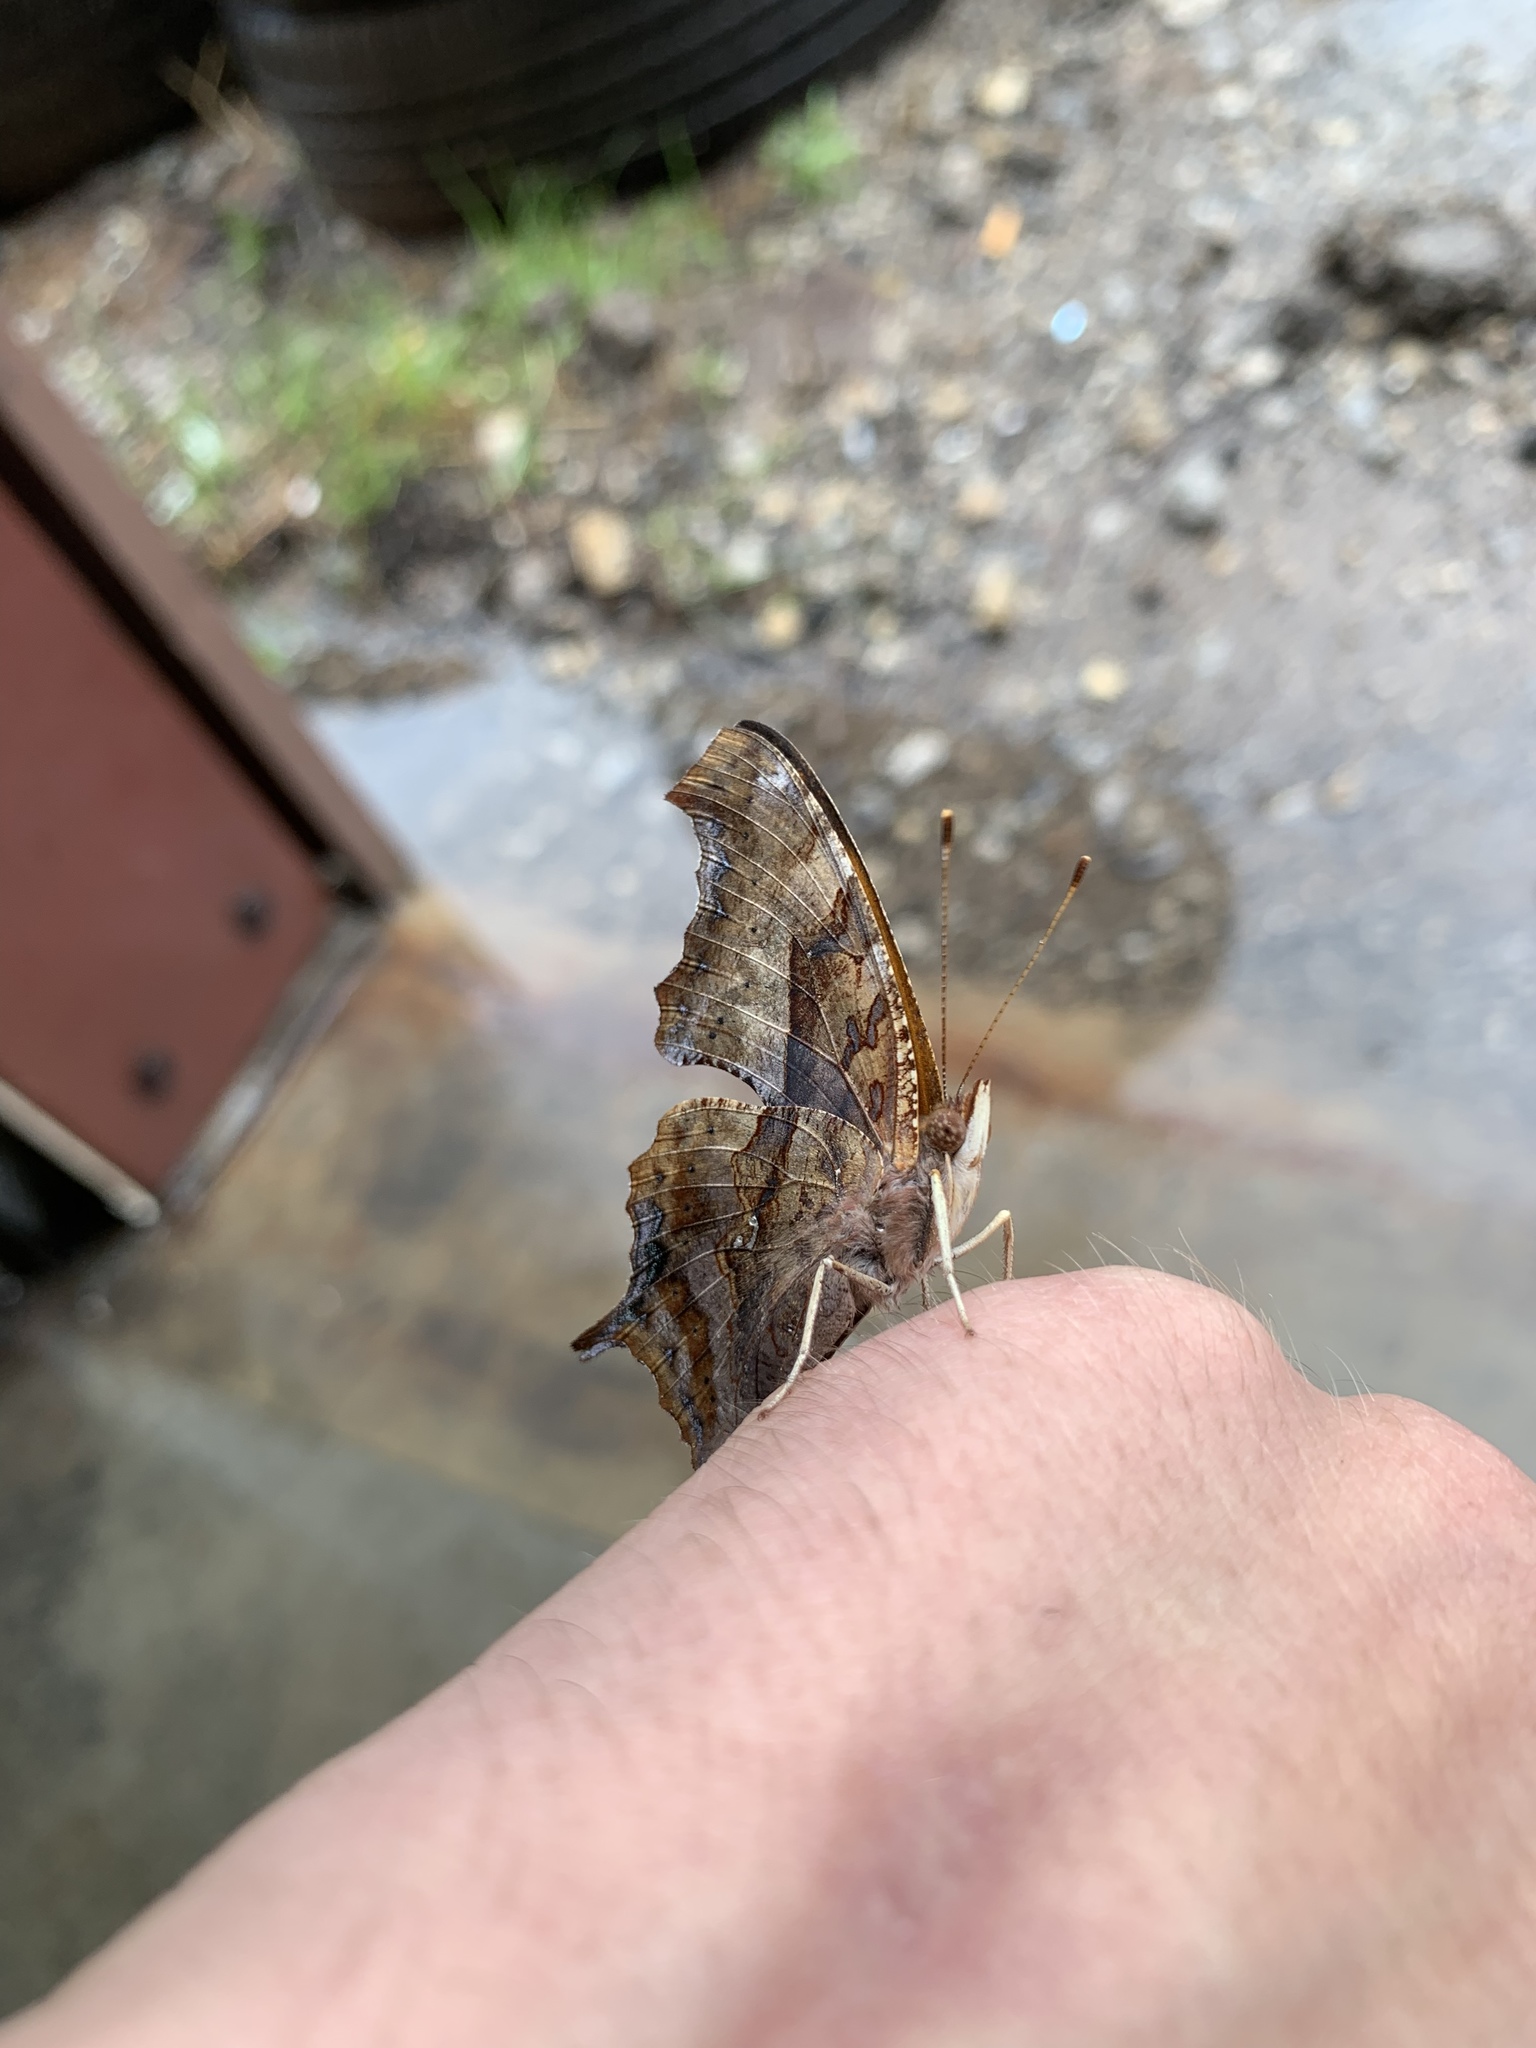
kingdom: Animalia
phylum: Arthropoda
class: Insecta
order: Lepidoptera
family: Nymphalidae
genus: Polygonia
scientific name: Polygonia interrogationis
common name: Question mark
